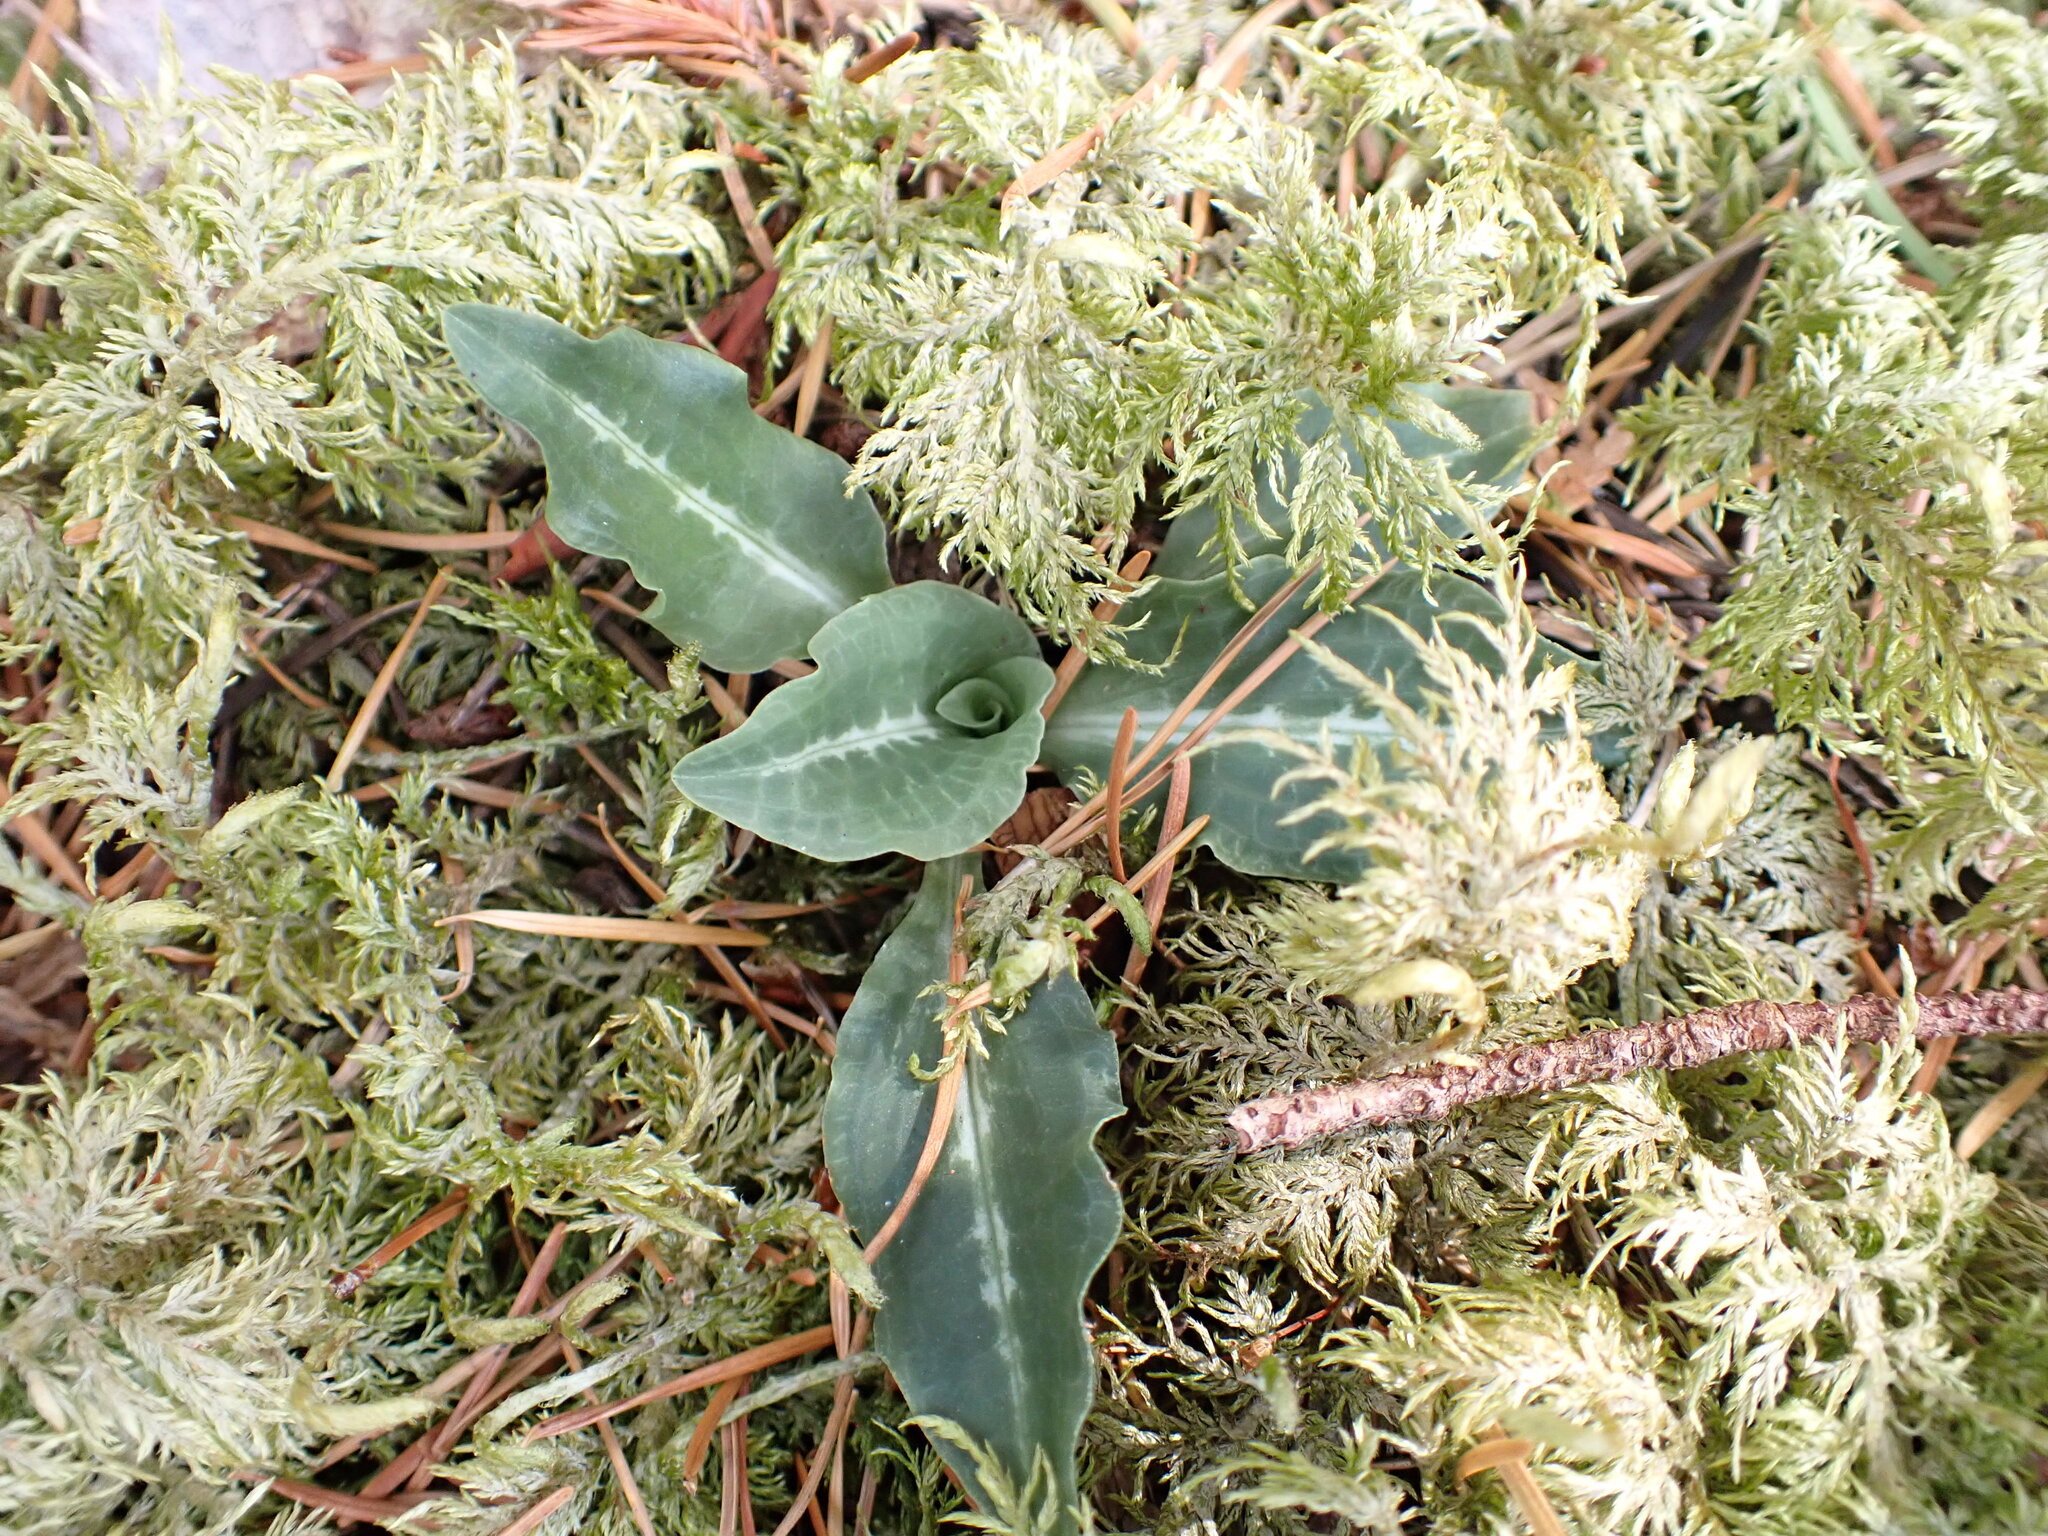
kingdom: Plantae
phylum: Tracheophyta
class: Liliopsida
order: Asparagales
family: Orchidaceae
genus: Goodyera
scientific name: Goodyera oblongifolia
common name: Giant rattlesnake-plantain
